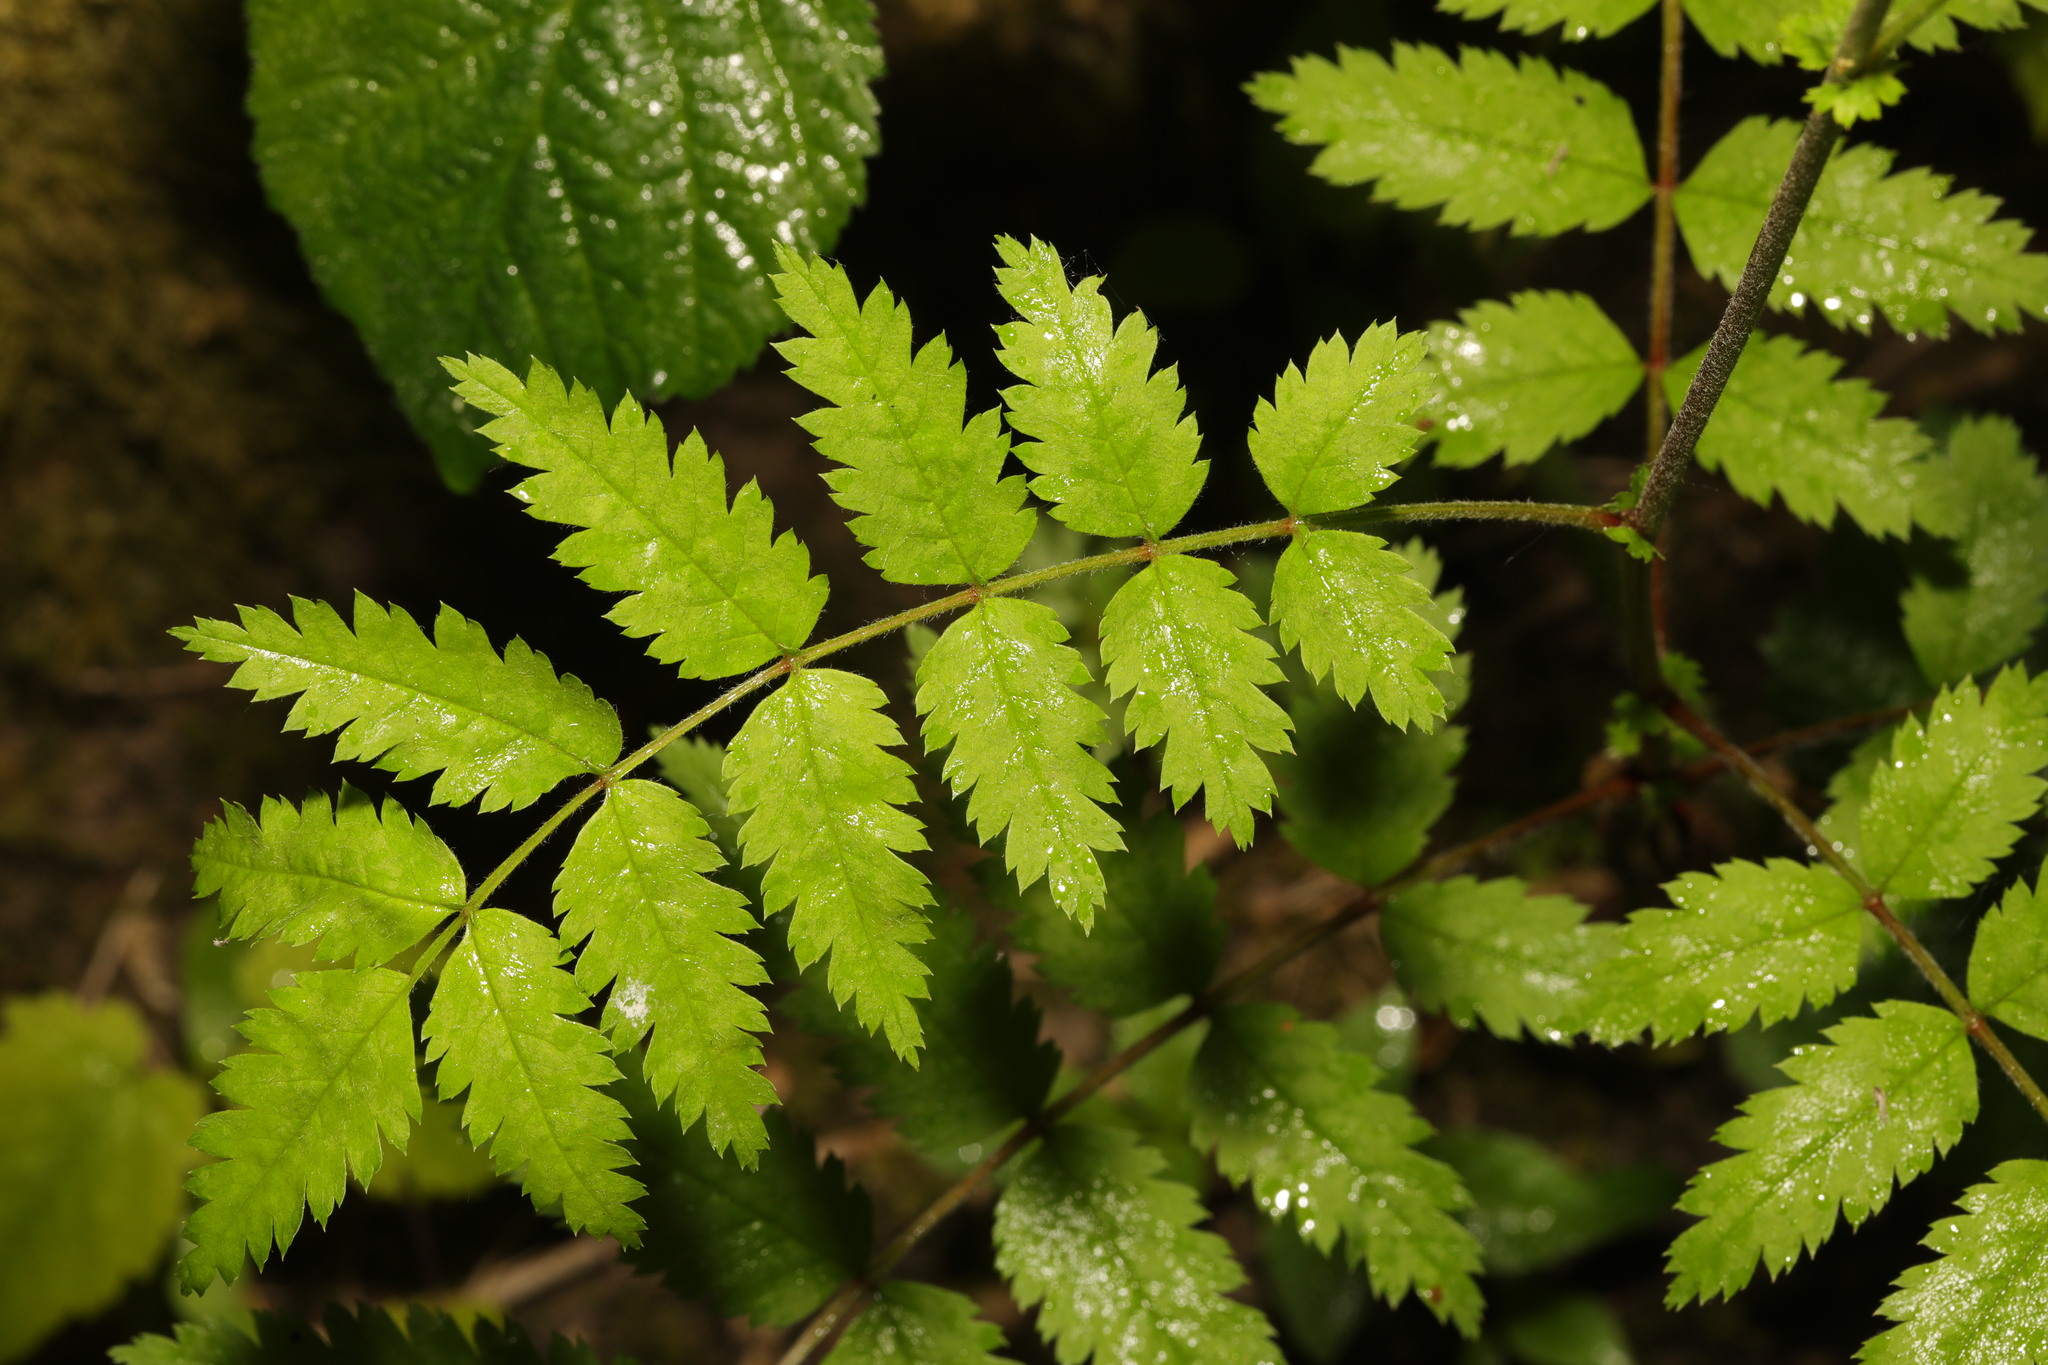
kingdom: Plantae
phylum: Tracheophyta
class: Magnoliopsida
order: Rosales
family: Rosaceae
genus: Sorbus
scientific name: Sorbus aucuparia
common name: Rowan
